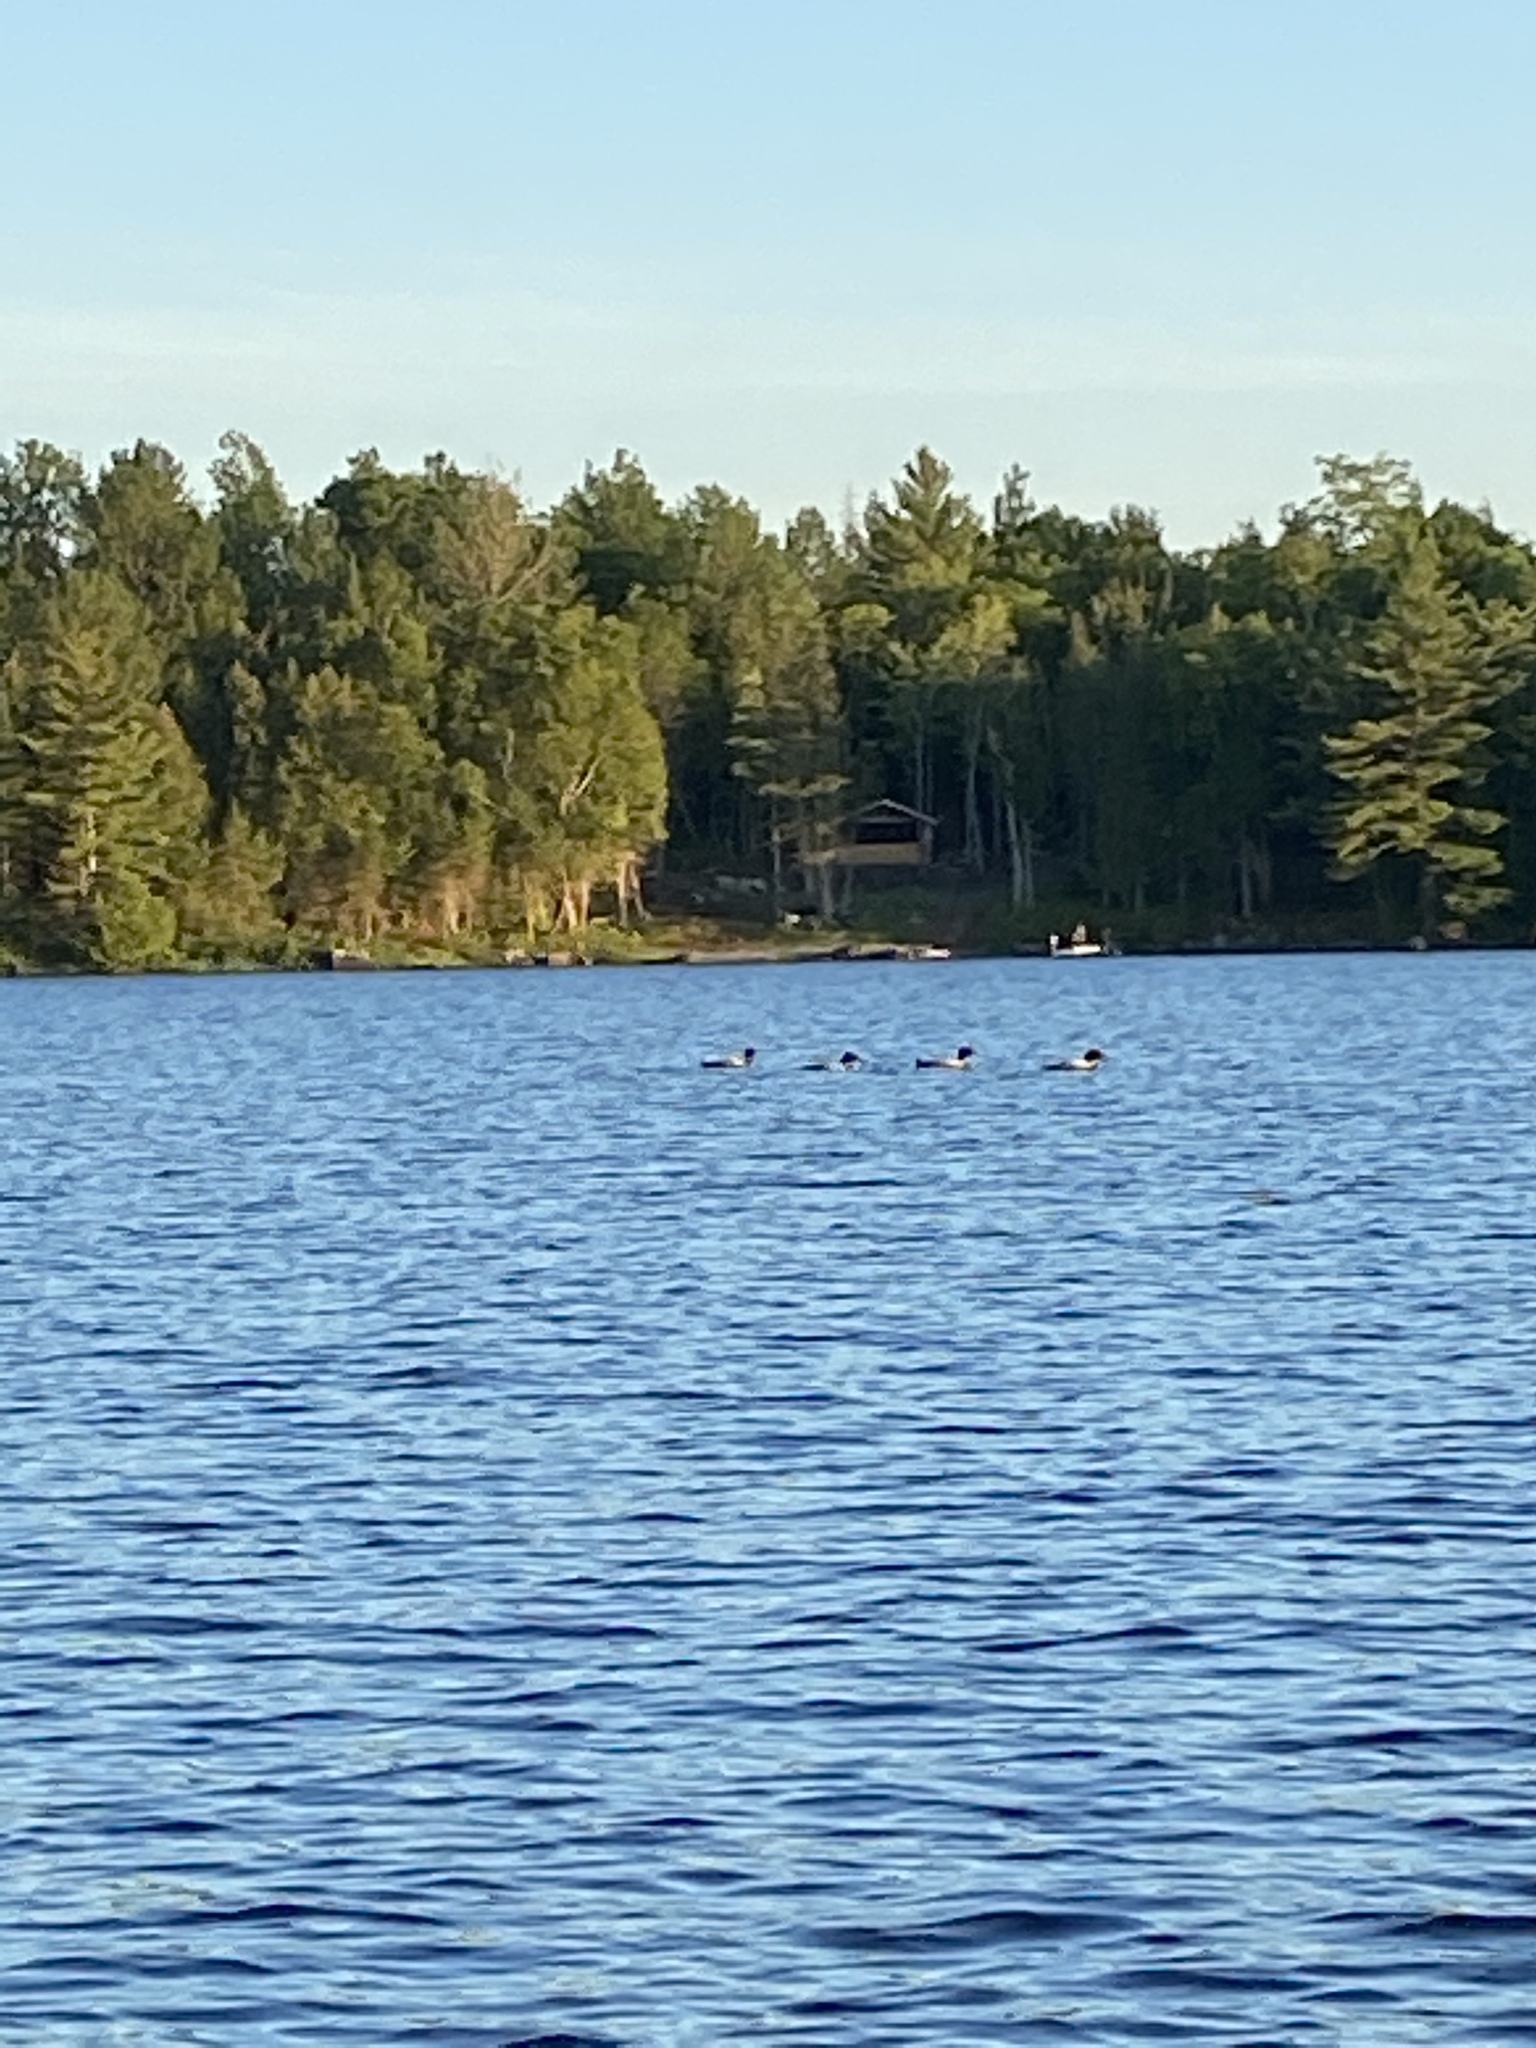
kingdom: Animalia
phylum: Chordata
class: Aves
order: Gaviiformes
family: Gaviidae
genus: Gavia
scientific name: Gavia immer
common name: Common loon
